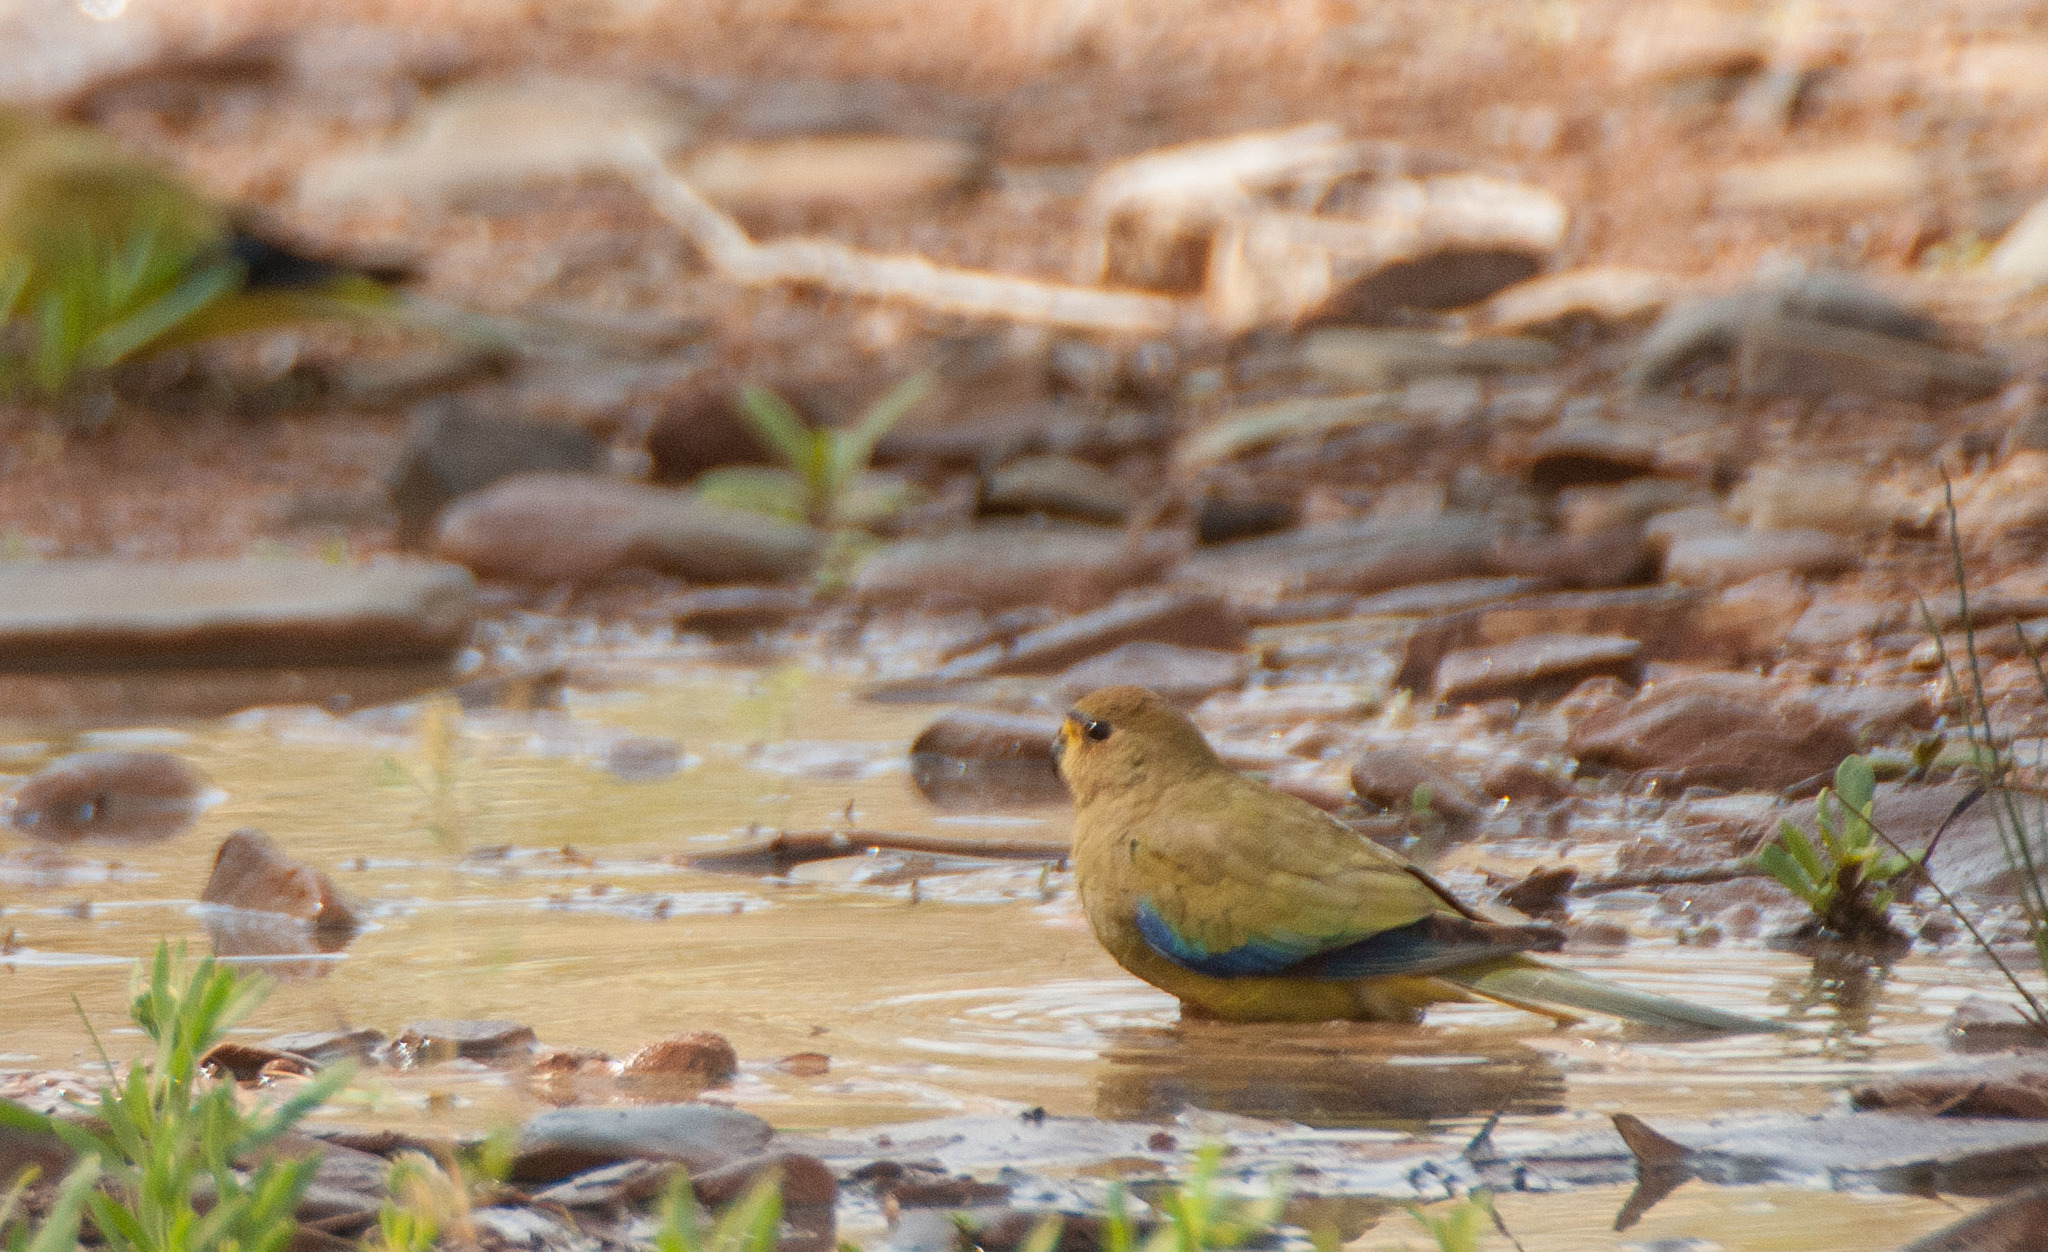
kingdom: Animalia
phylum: Chordata
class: Aves
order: Psittaciformes
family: Psittacidae
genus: Neophema
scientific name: Neophema elegans
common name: Elegant parrot
